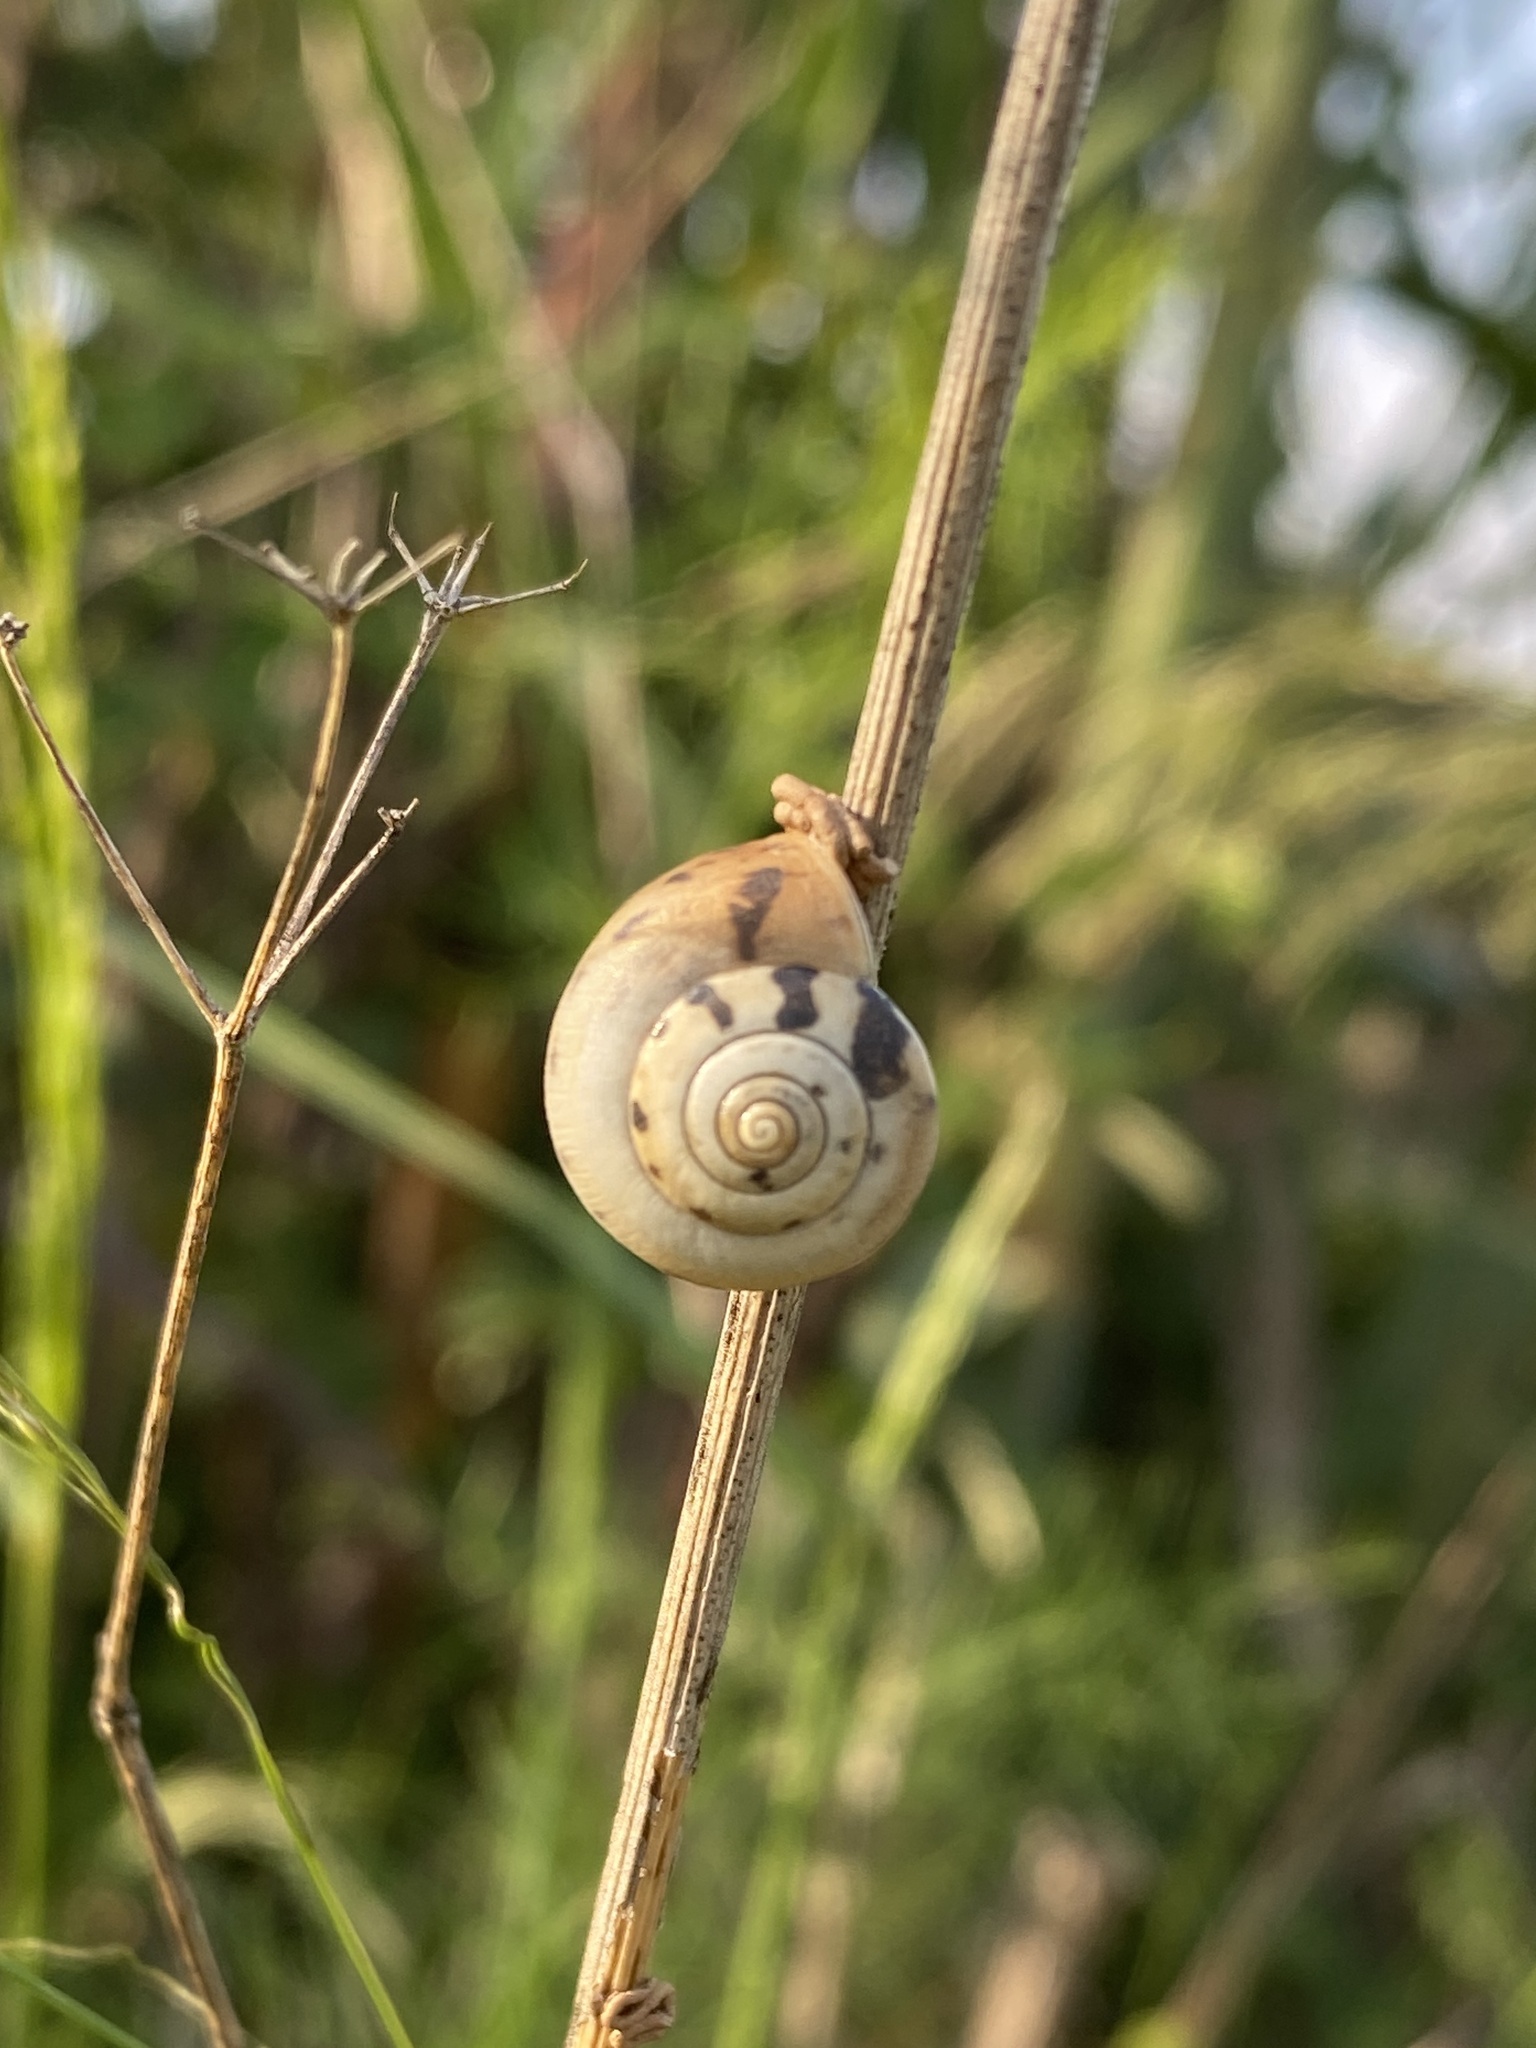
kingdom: Animalia
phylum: Mollusca
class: Gastropoda
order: Stylommatophora
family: Hygromiidae
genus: Monacha
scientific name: Monacha cartusiana
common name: Carthusian snail
